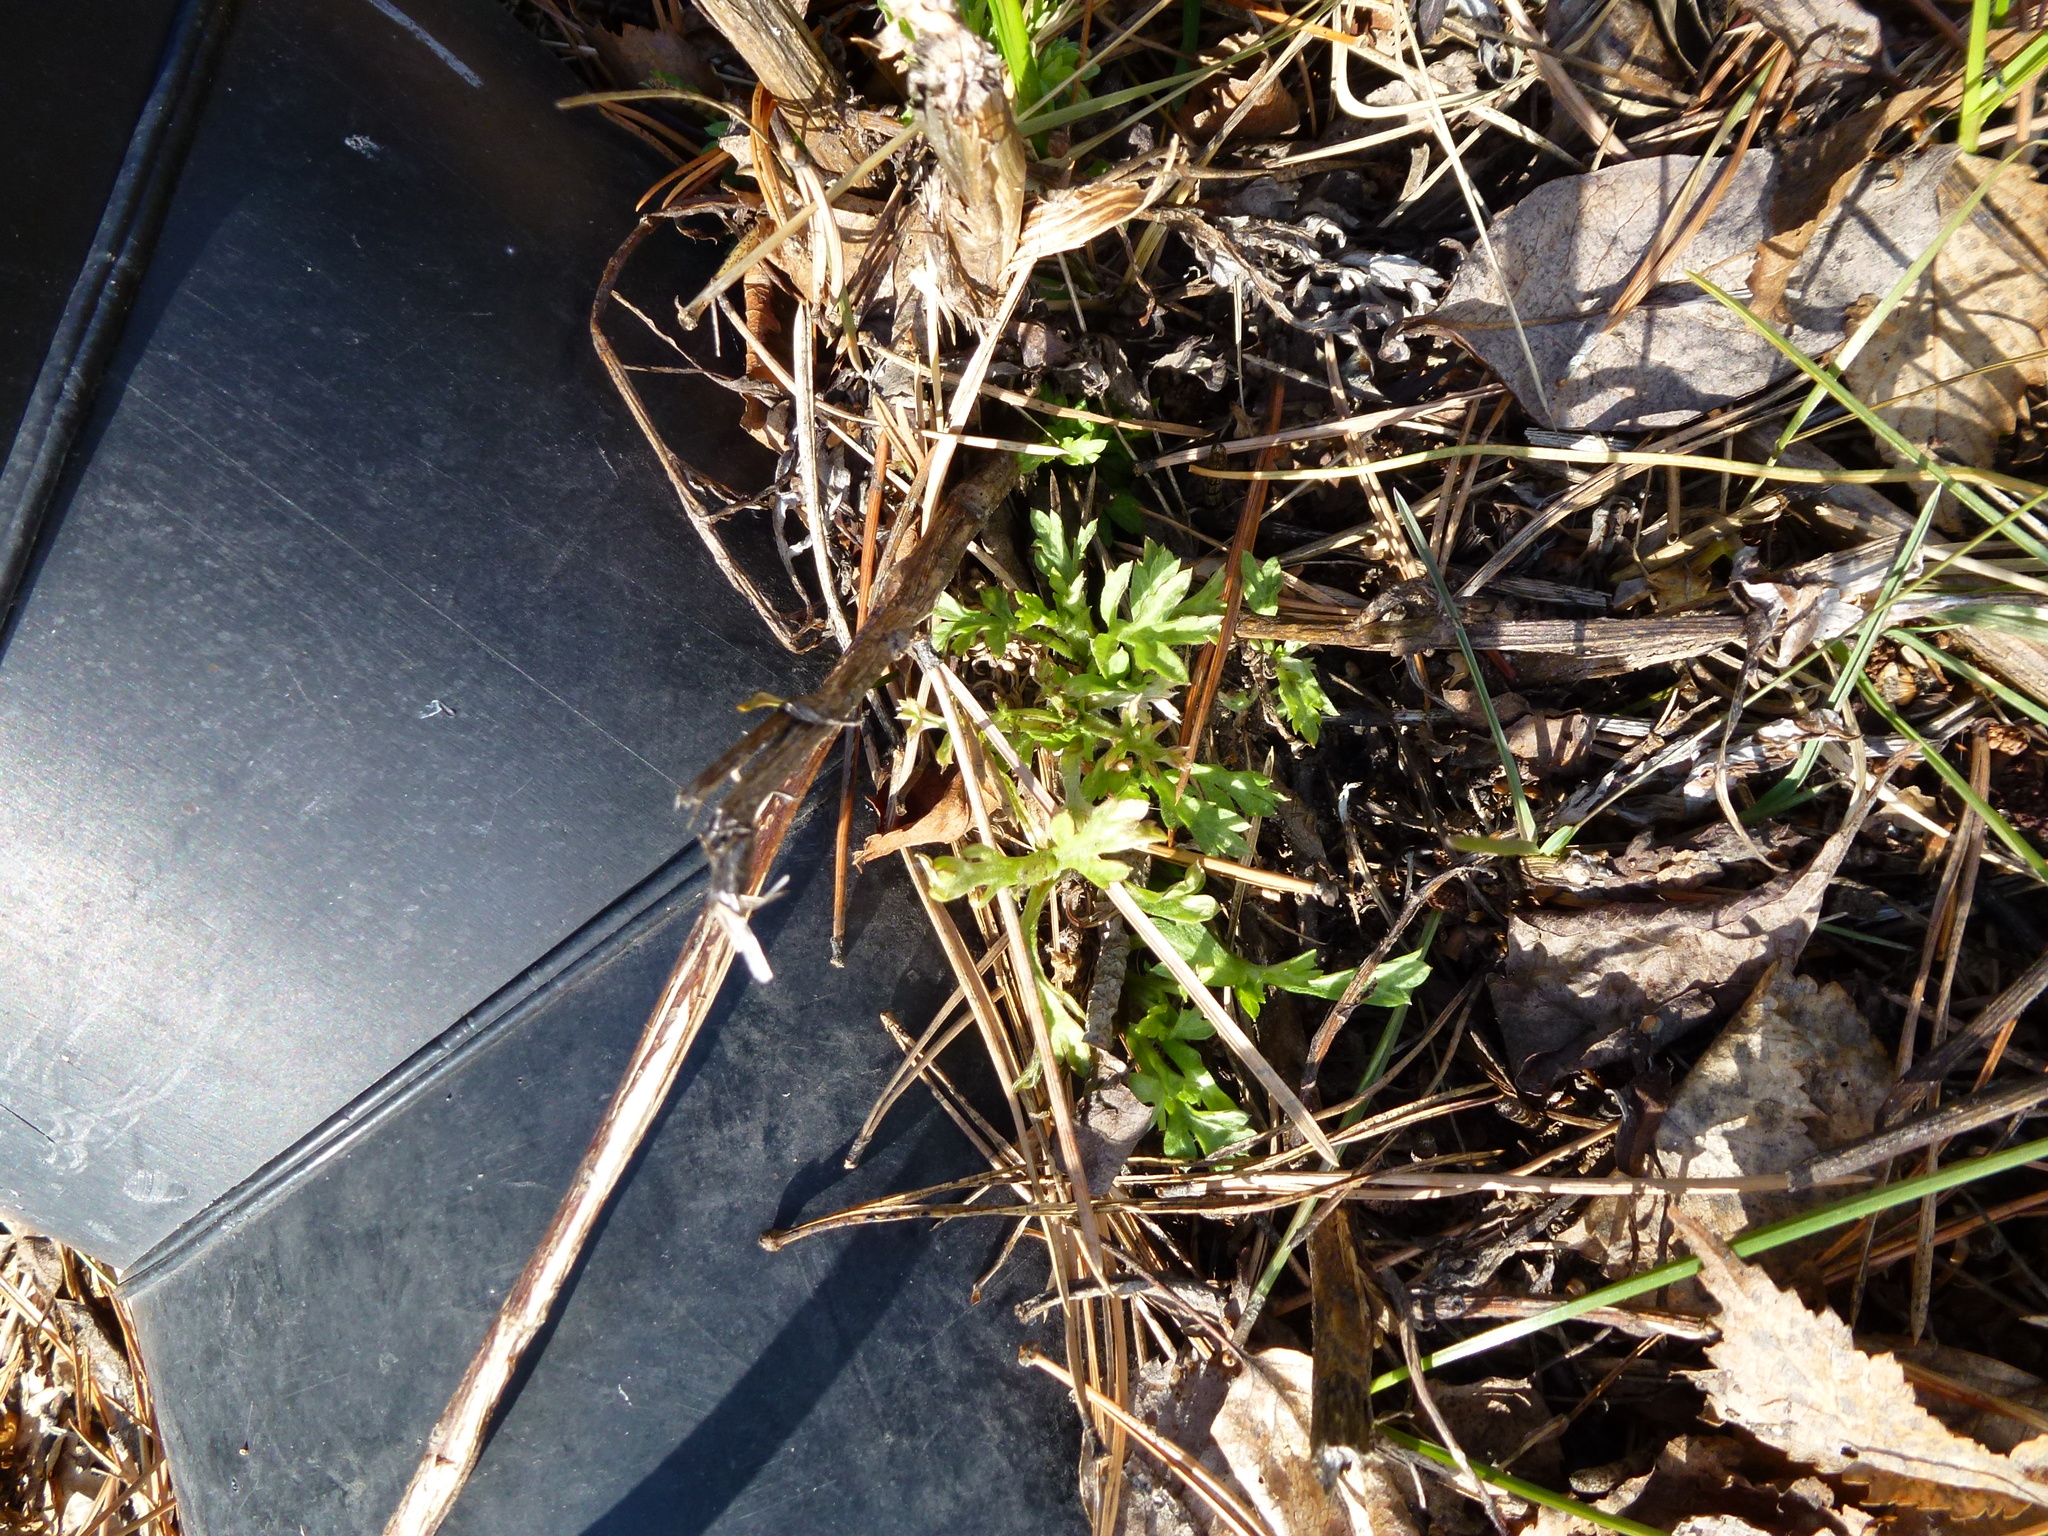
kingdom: Plantae
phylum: Tracheophyta
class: Magnoliopsida
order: Asterales
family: Asteraceae
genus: Artemisia
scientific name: Artemisia vulgaris
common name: Mugwort
